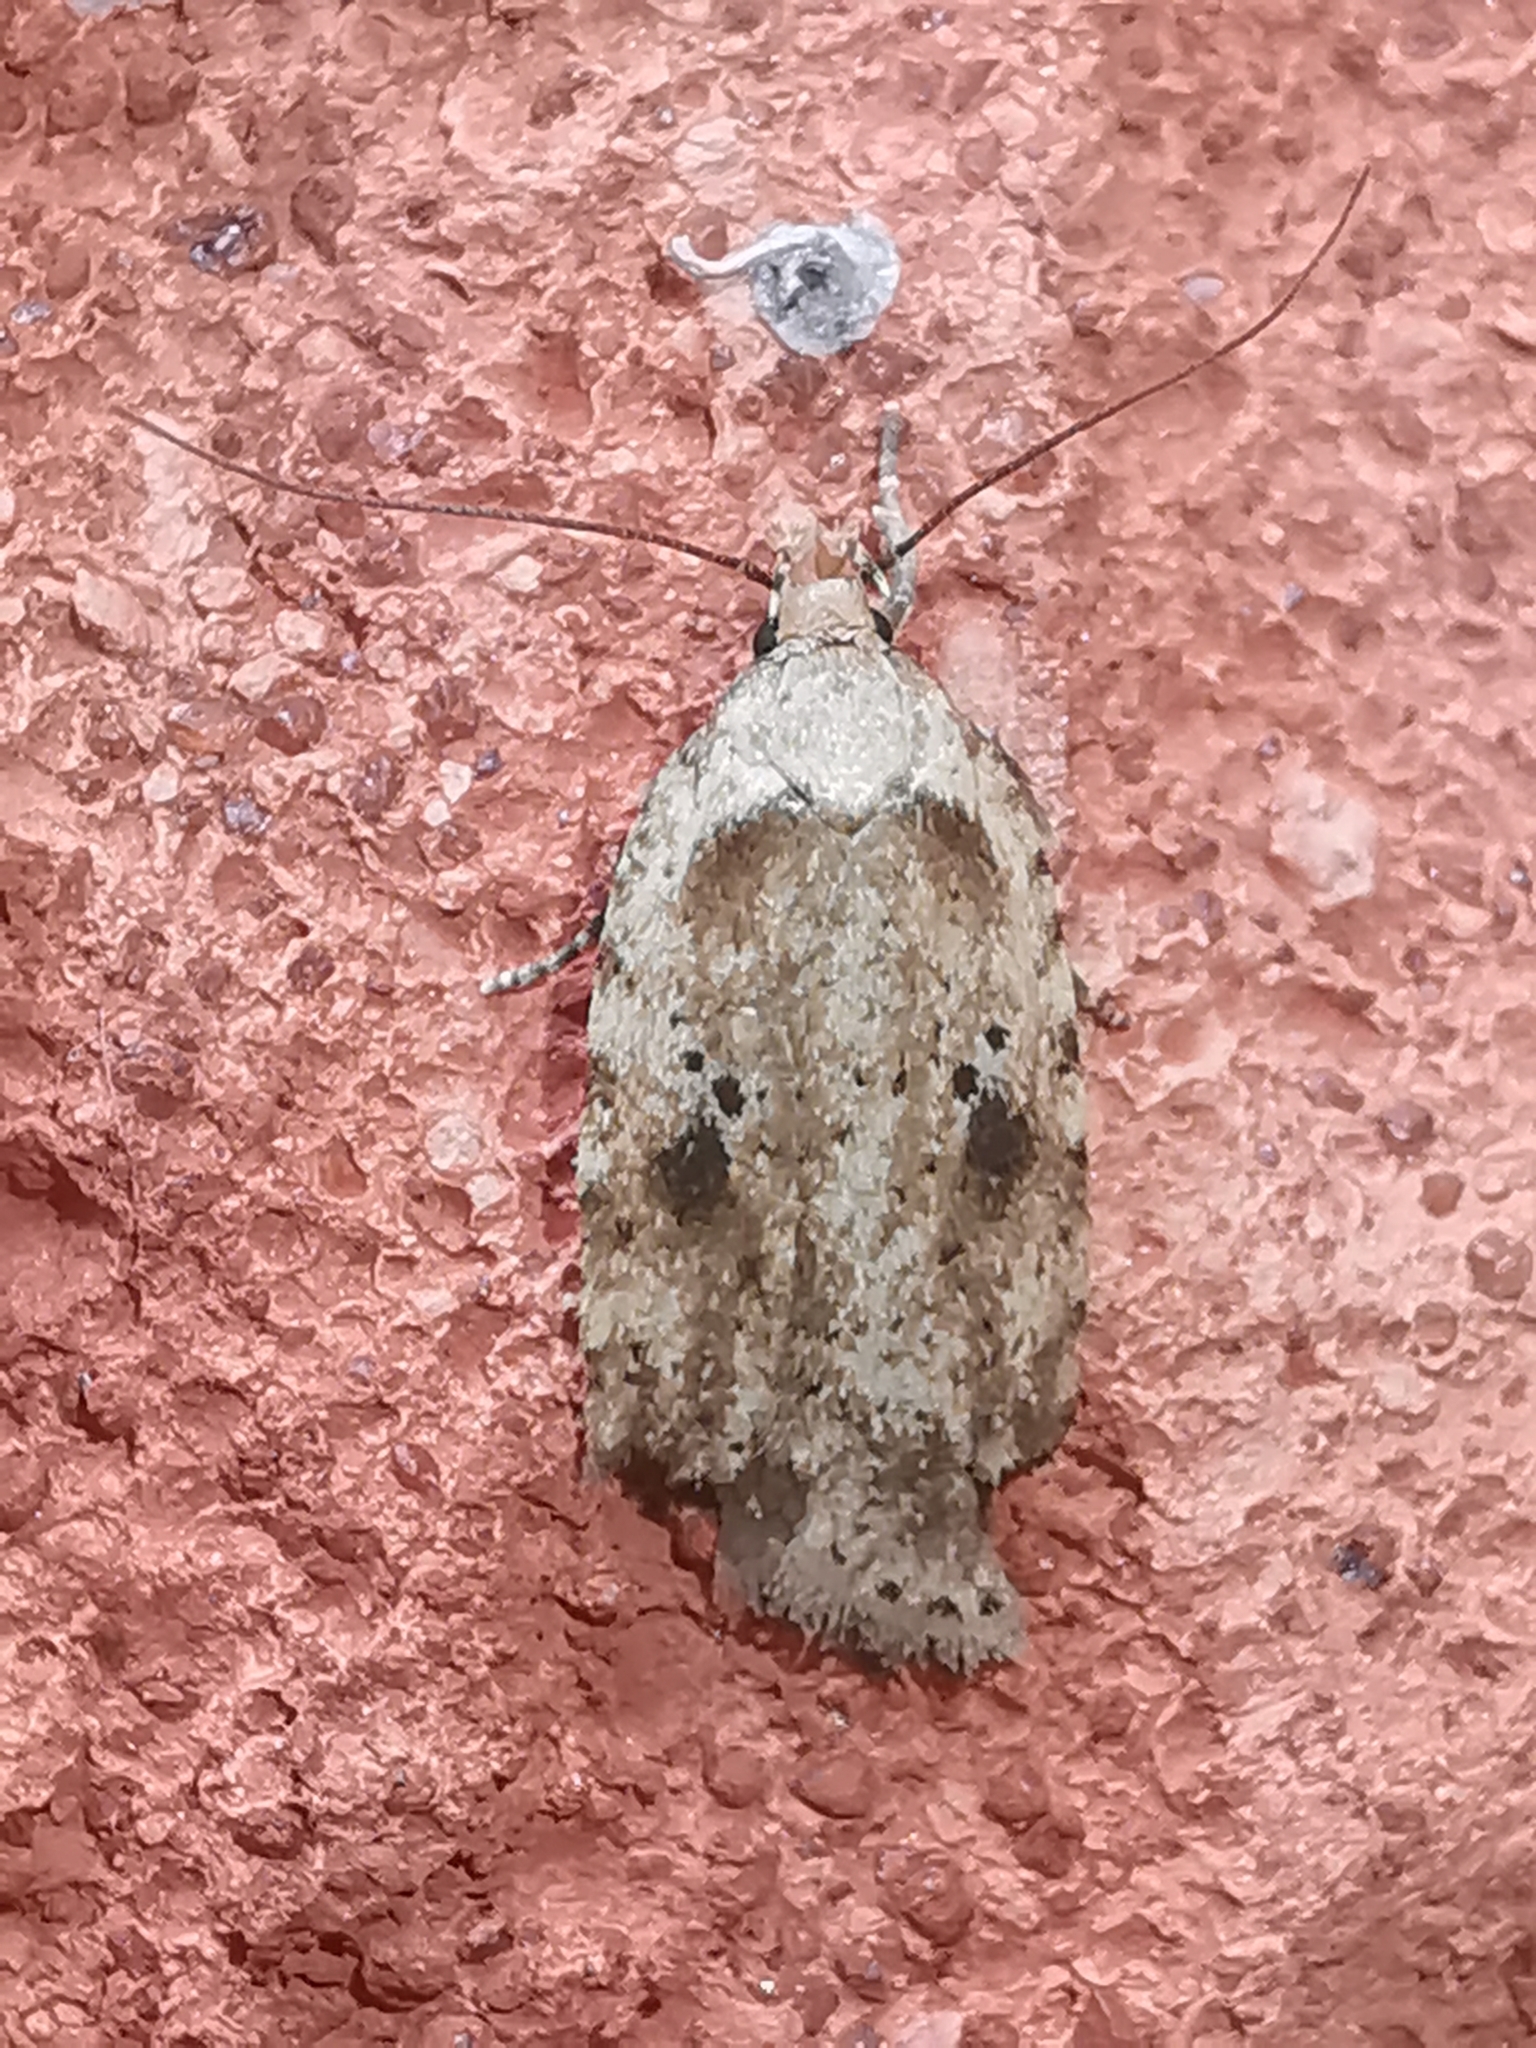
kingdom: Animalia
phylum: Arthropoda
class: Insecta
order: Lepidoptera
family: Depressariidae
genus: Agonopterix
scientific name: Agonopterix arenella
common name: Brindled flat-body
